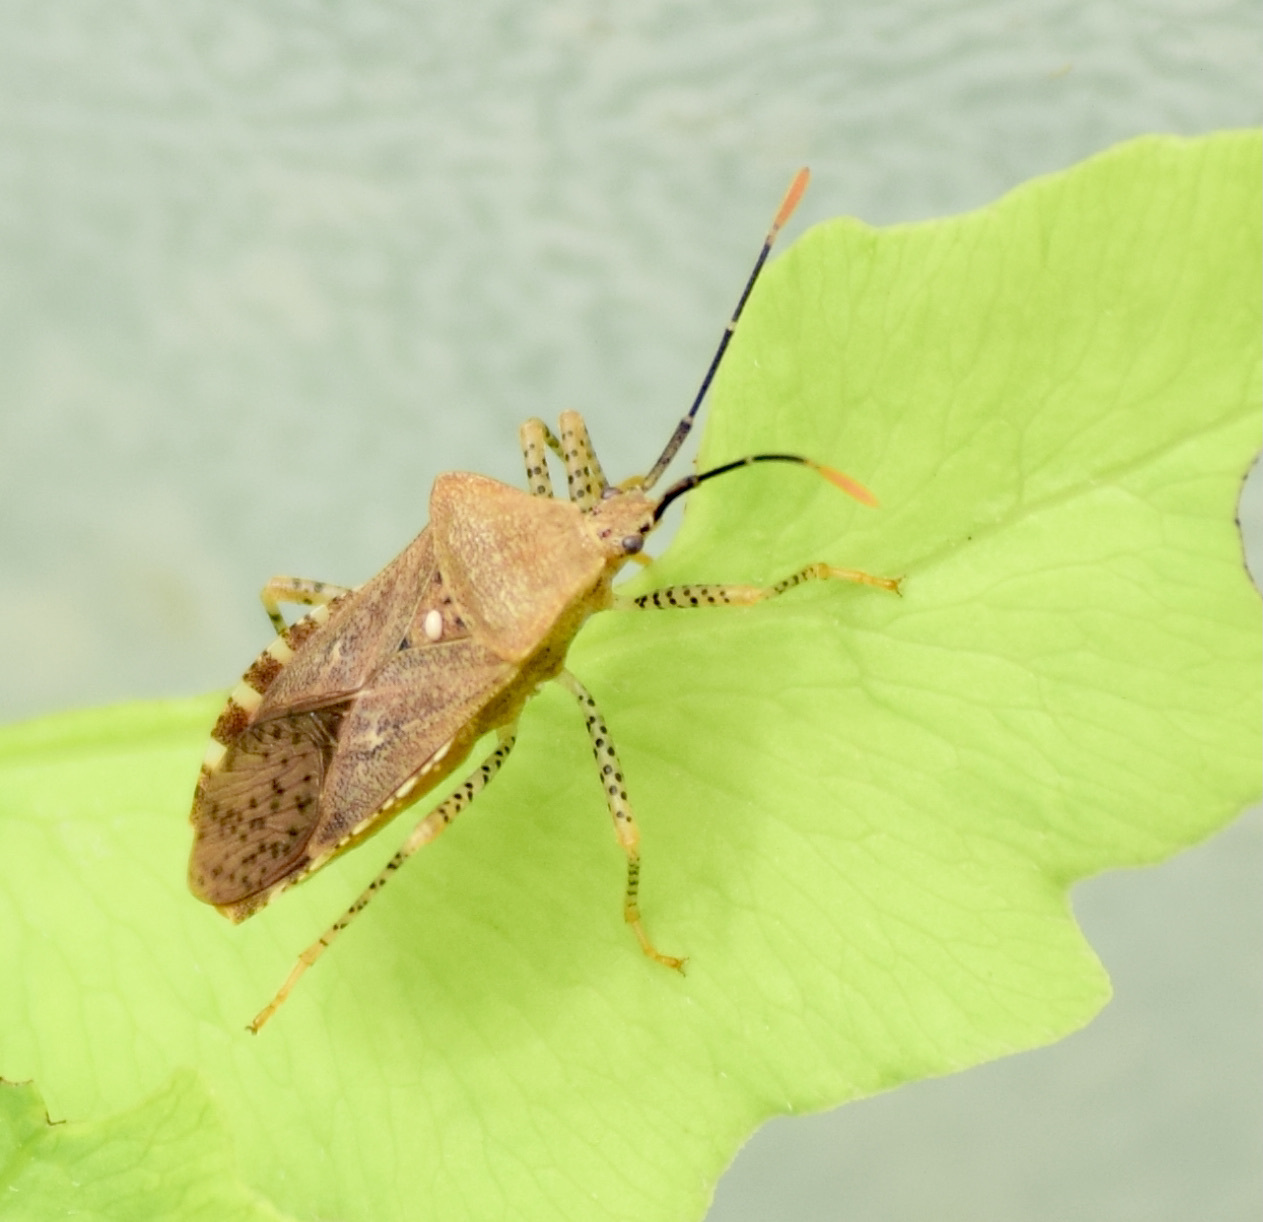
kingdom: Animalia
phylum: Arthropoda
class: Insecta
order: Hemiptera
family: Coreidae
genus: Anasa
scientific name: Anasa repetita
